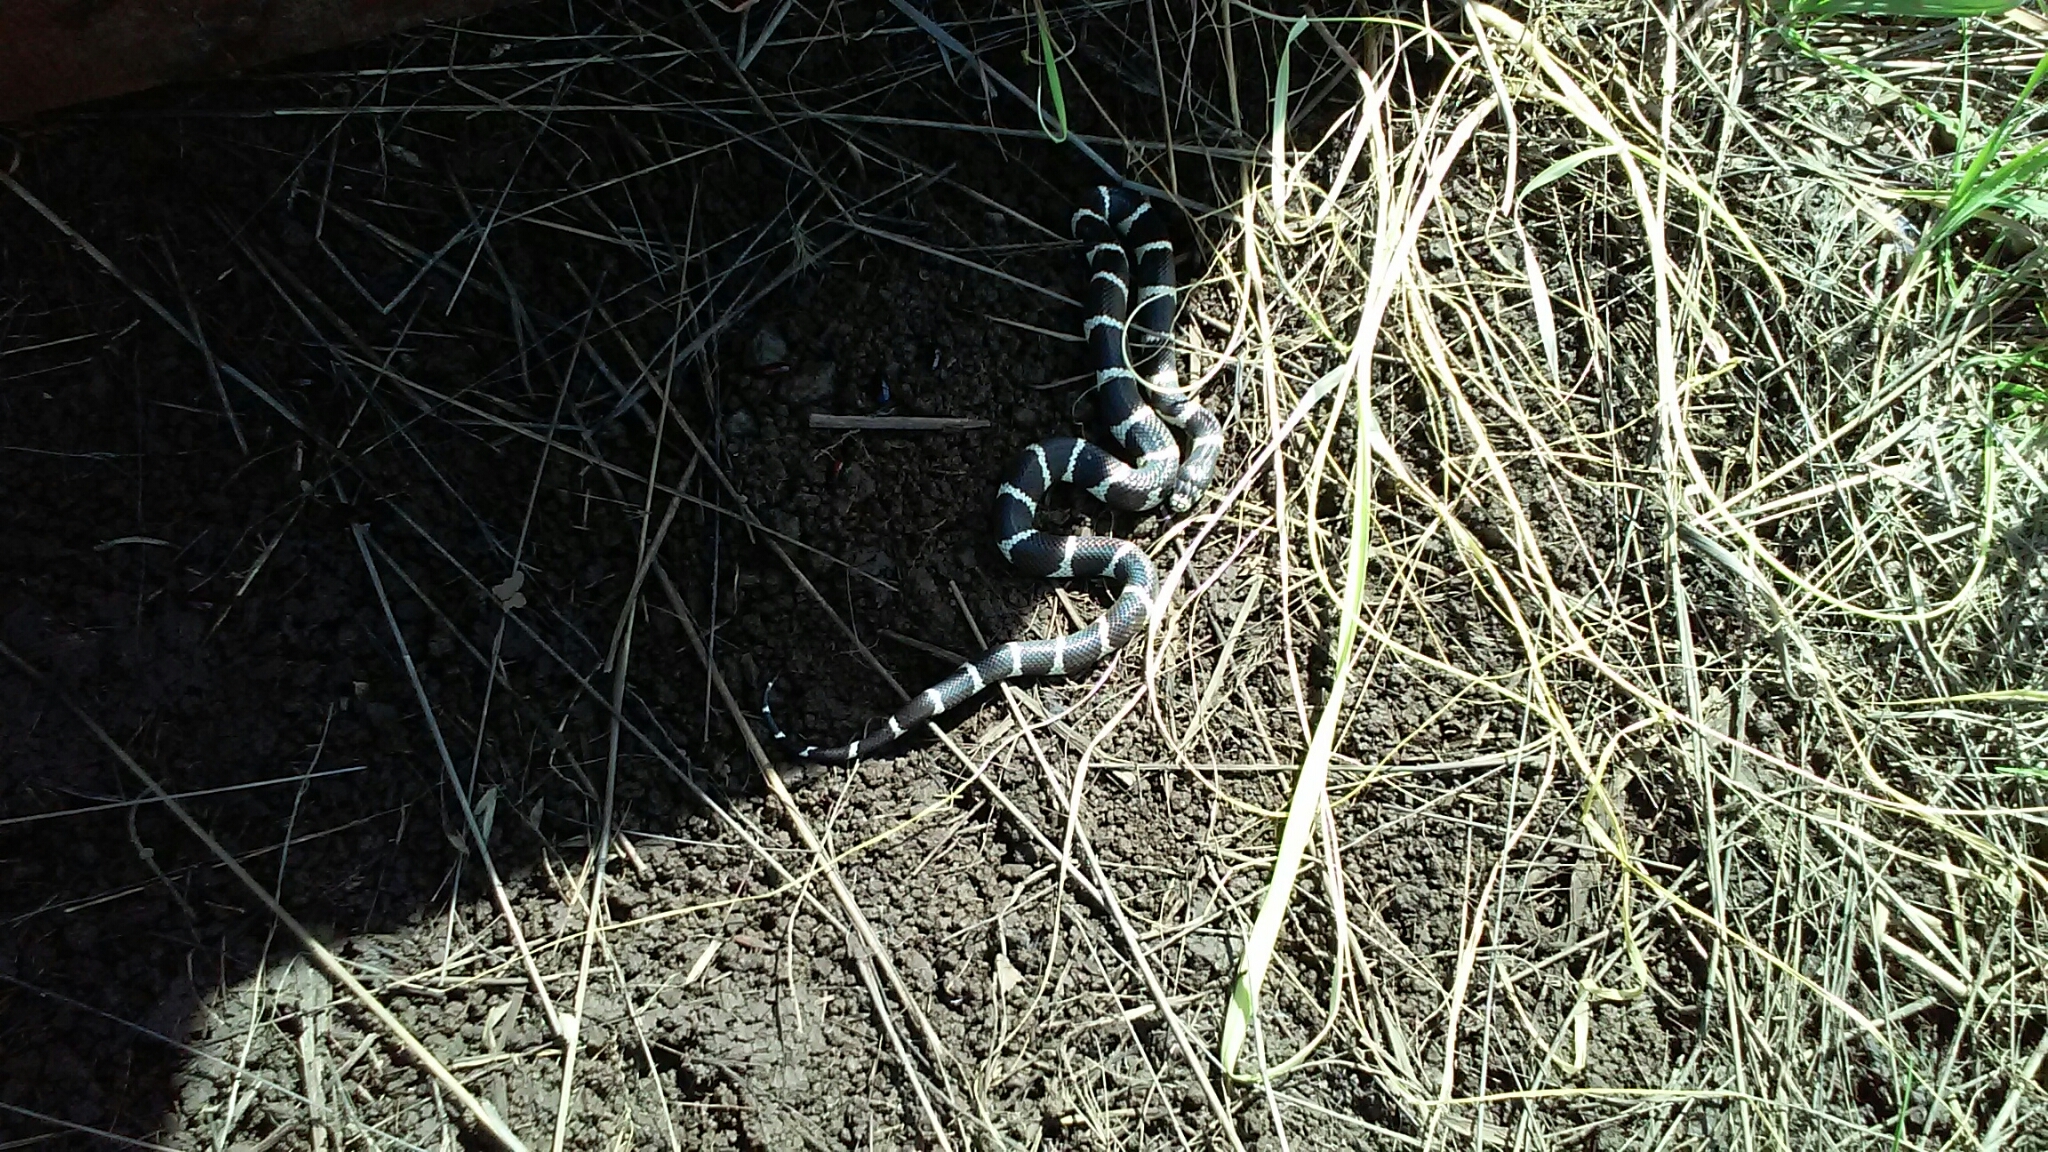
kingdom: Animalia
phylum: Chordata
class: Squamata
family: Colubridae
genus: Lampropeltis
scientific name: Lampropeltis californiae
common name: California kingsnake
